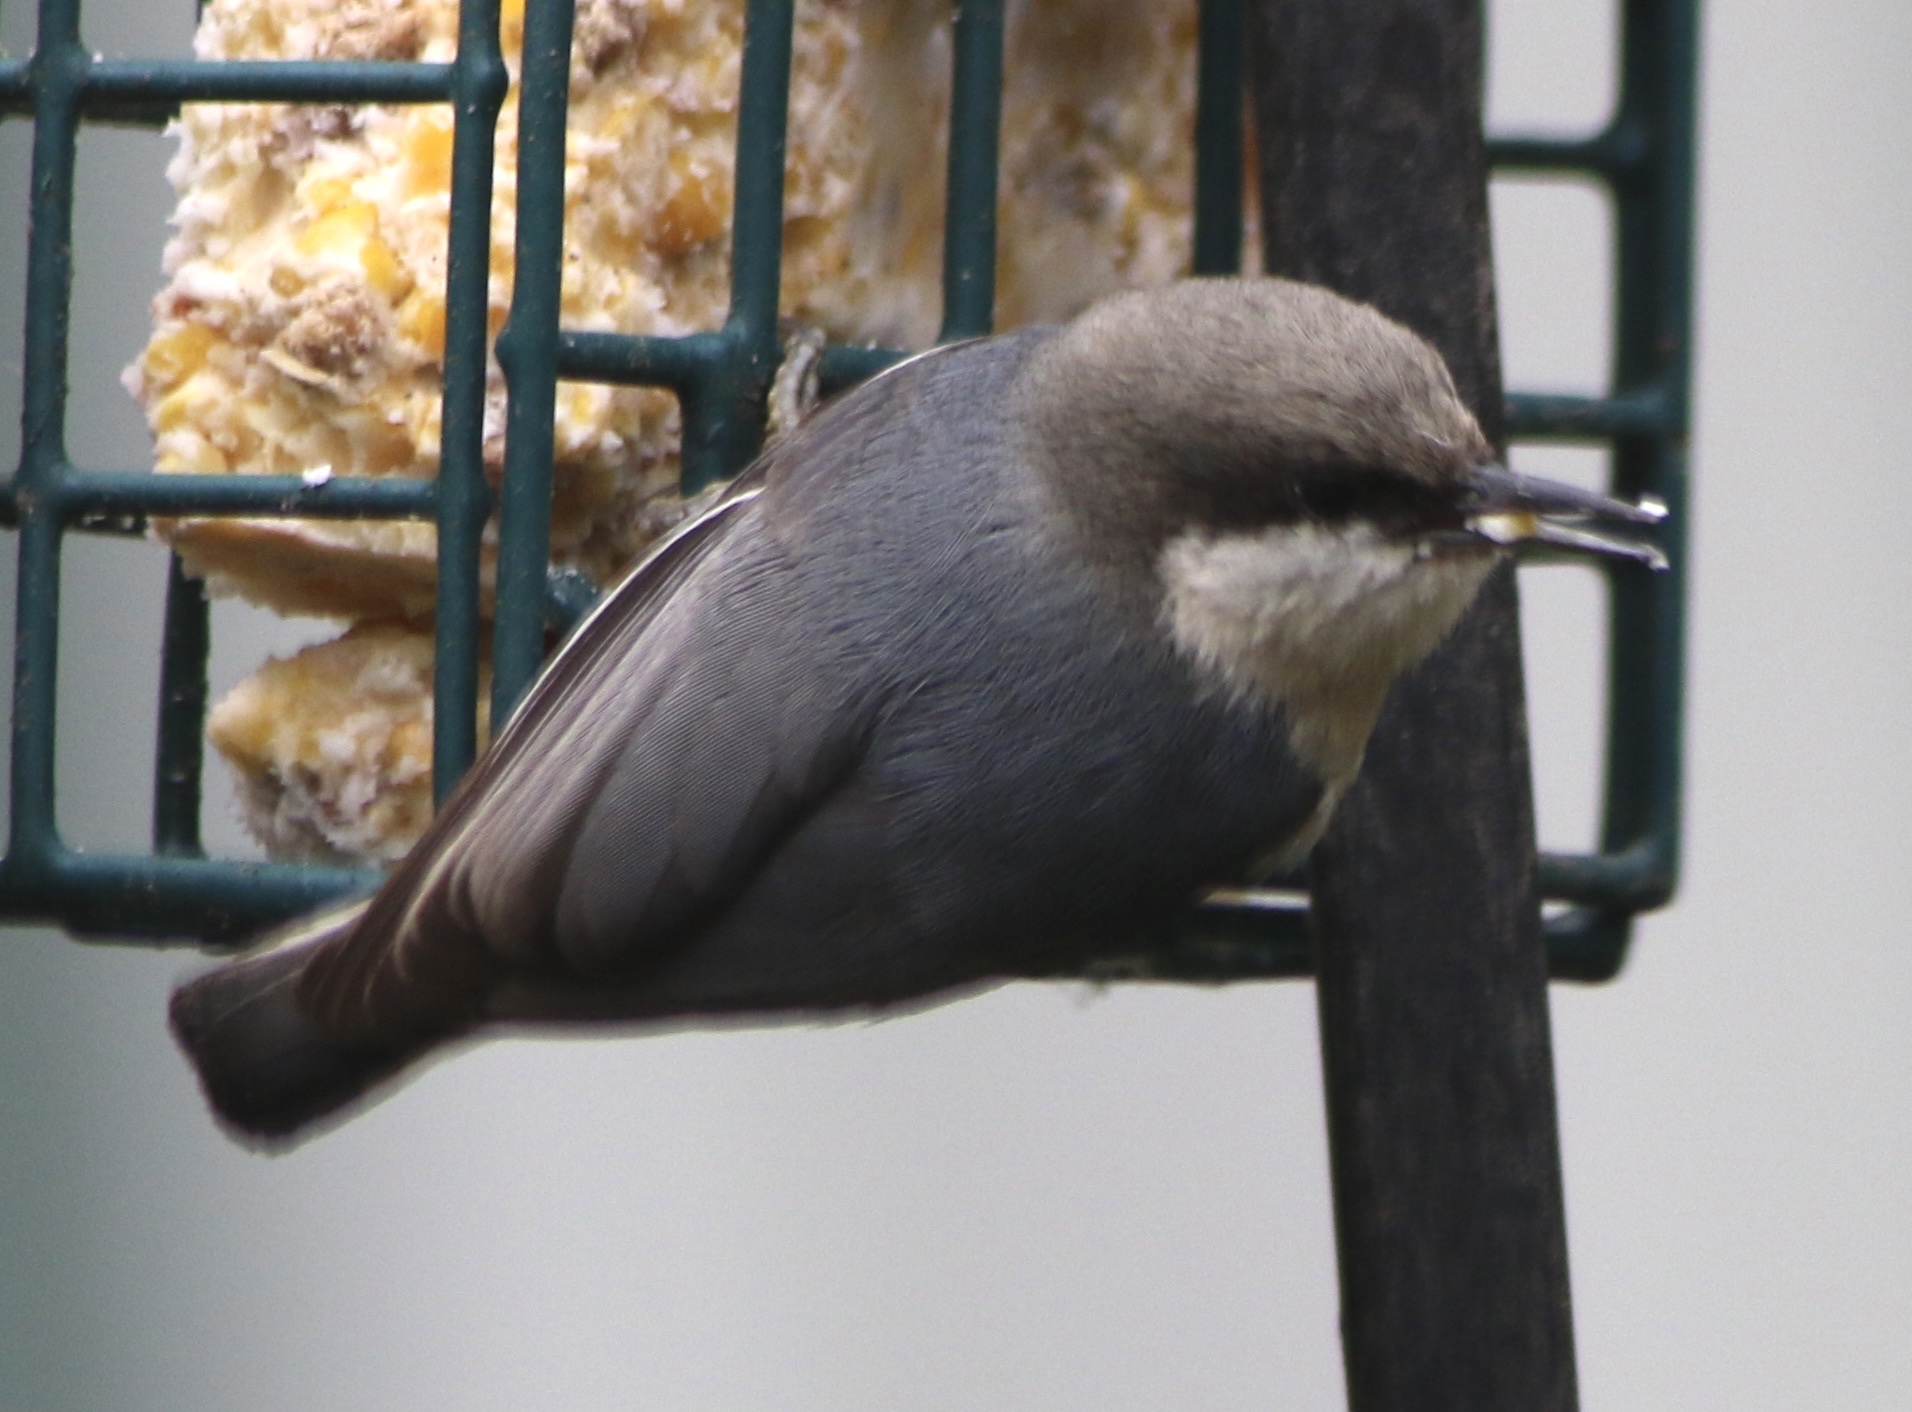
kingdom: Animalia
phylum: Chordata
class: Aves
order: Passeriformes
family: Sittidae
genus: Sitta
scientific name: Sitta pygmaea
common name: Pygmy nuthatch
